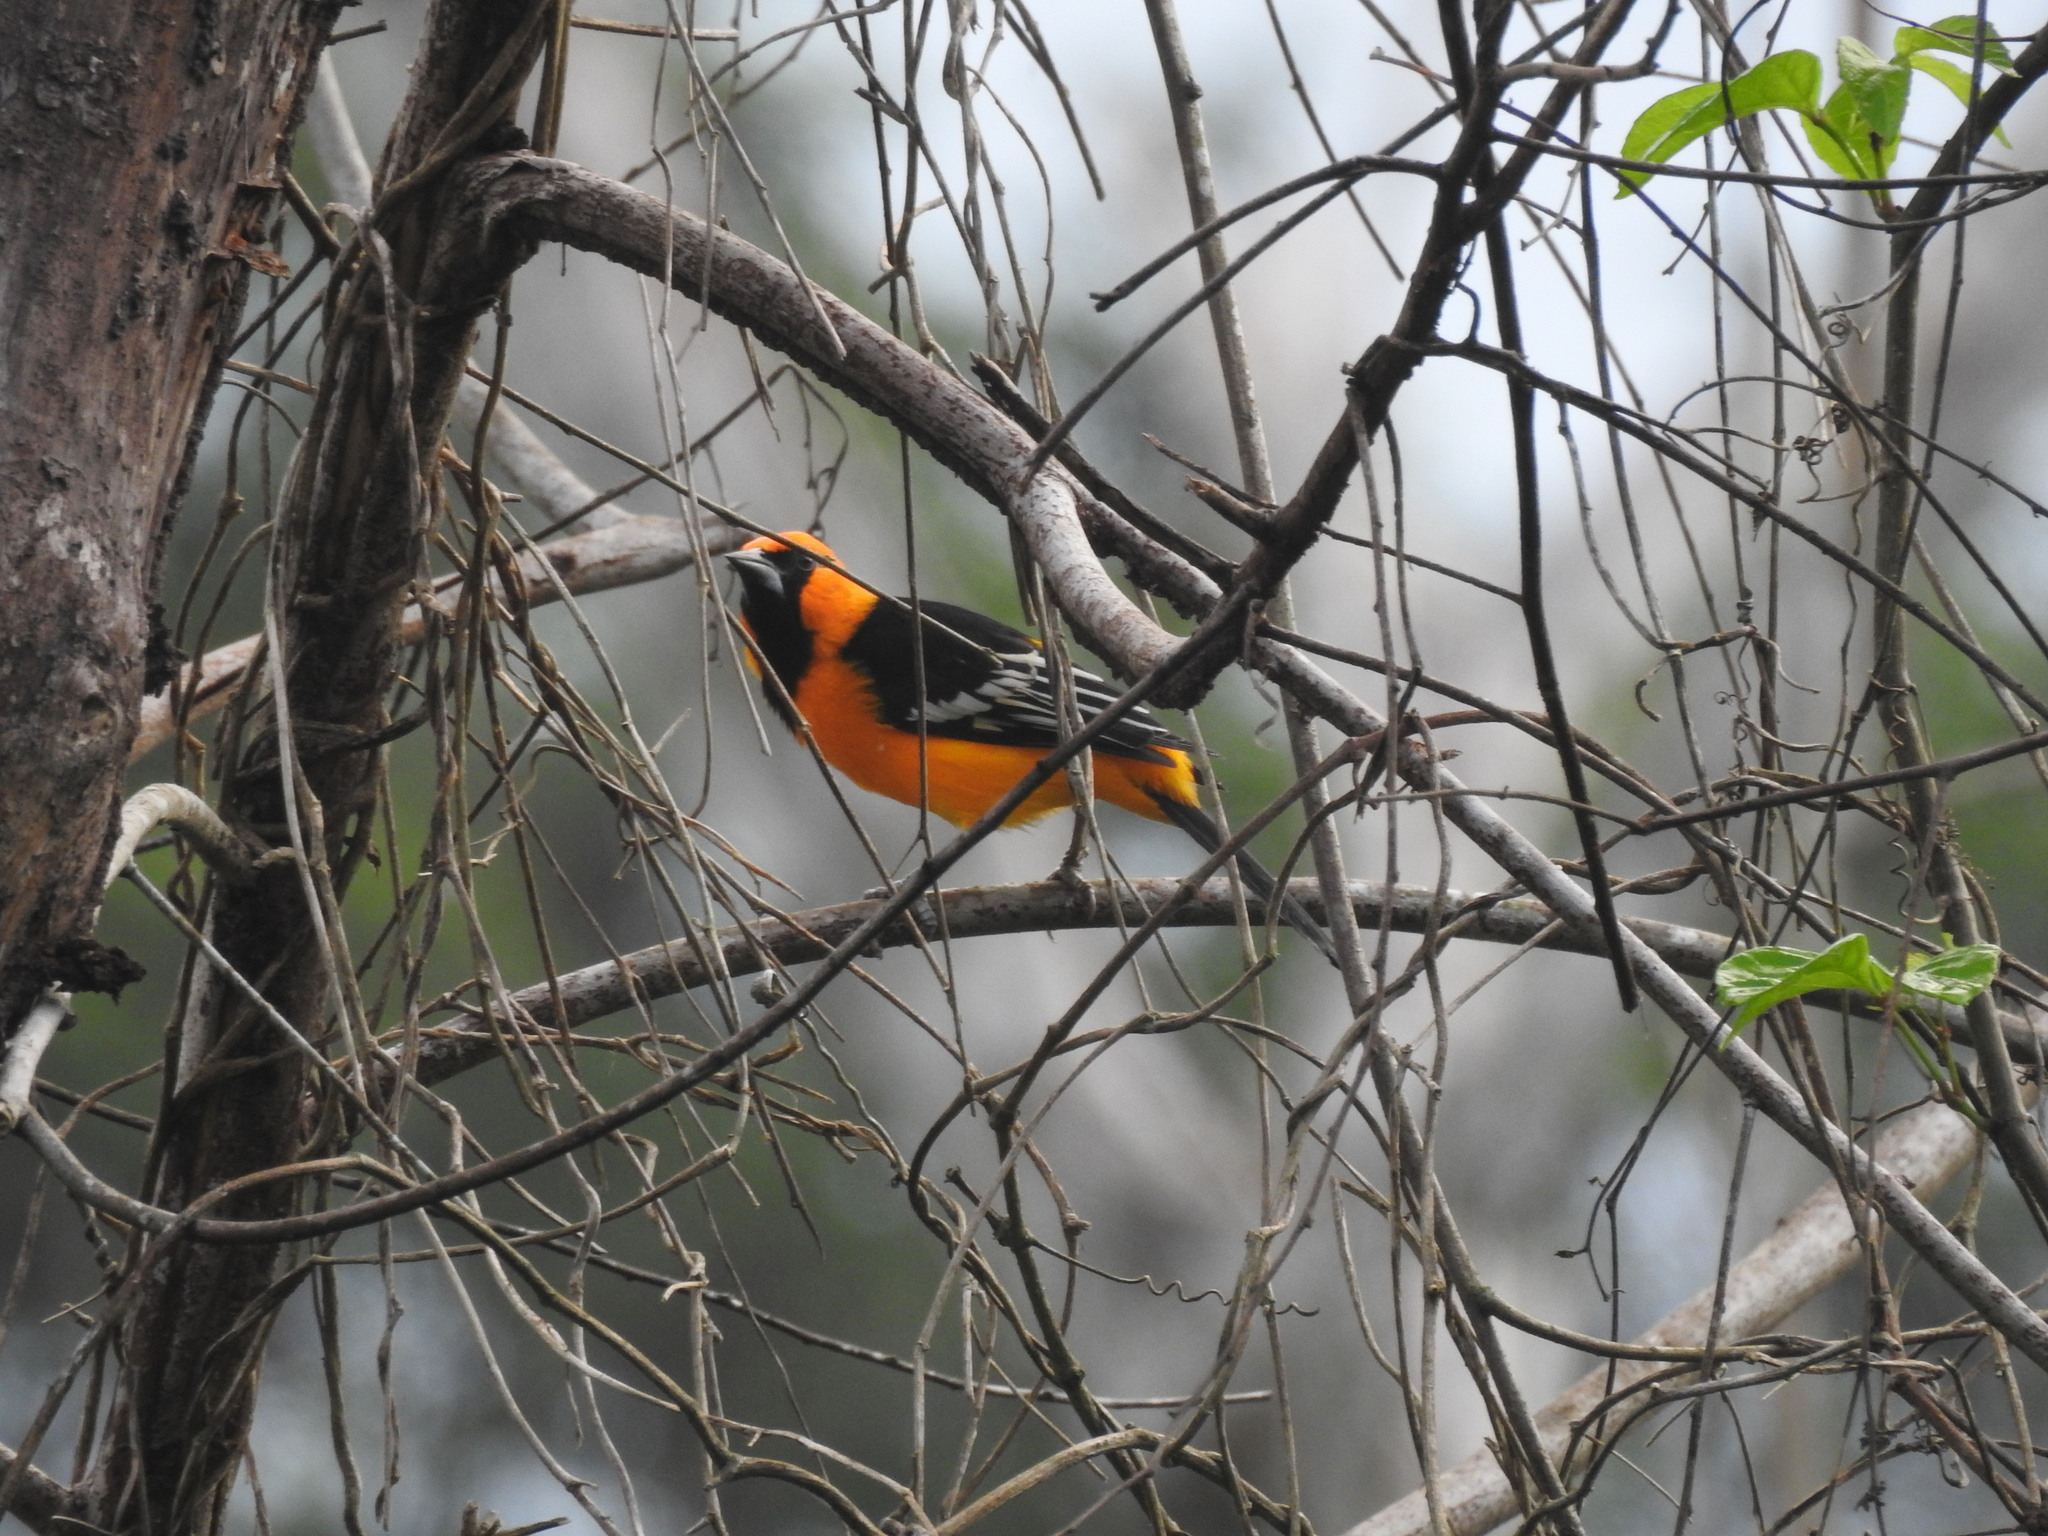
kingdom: Animalia
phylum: Chordata
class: Aves
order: Passeriformes
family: Icteridae
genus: Icterus
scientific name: Icterus gularis
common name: Altamira oriole
